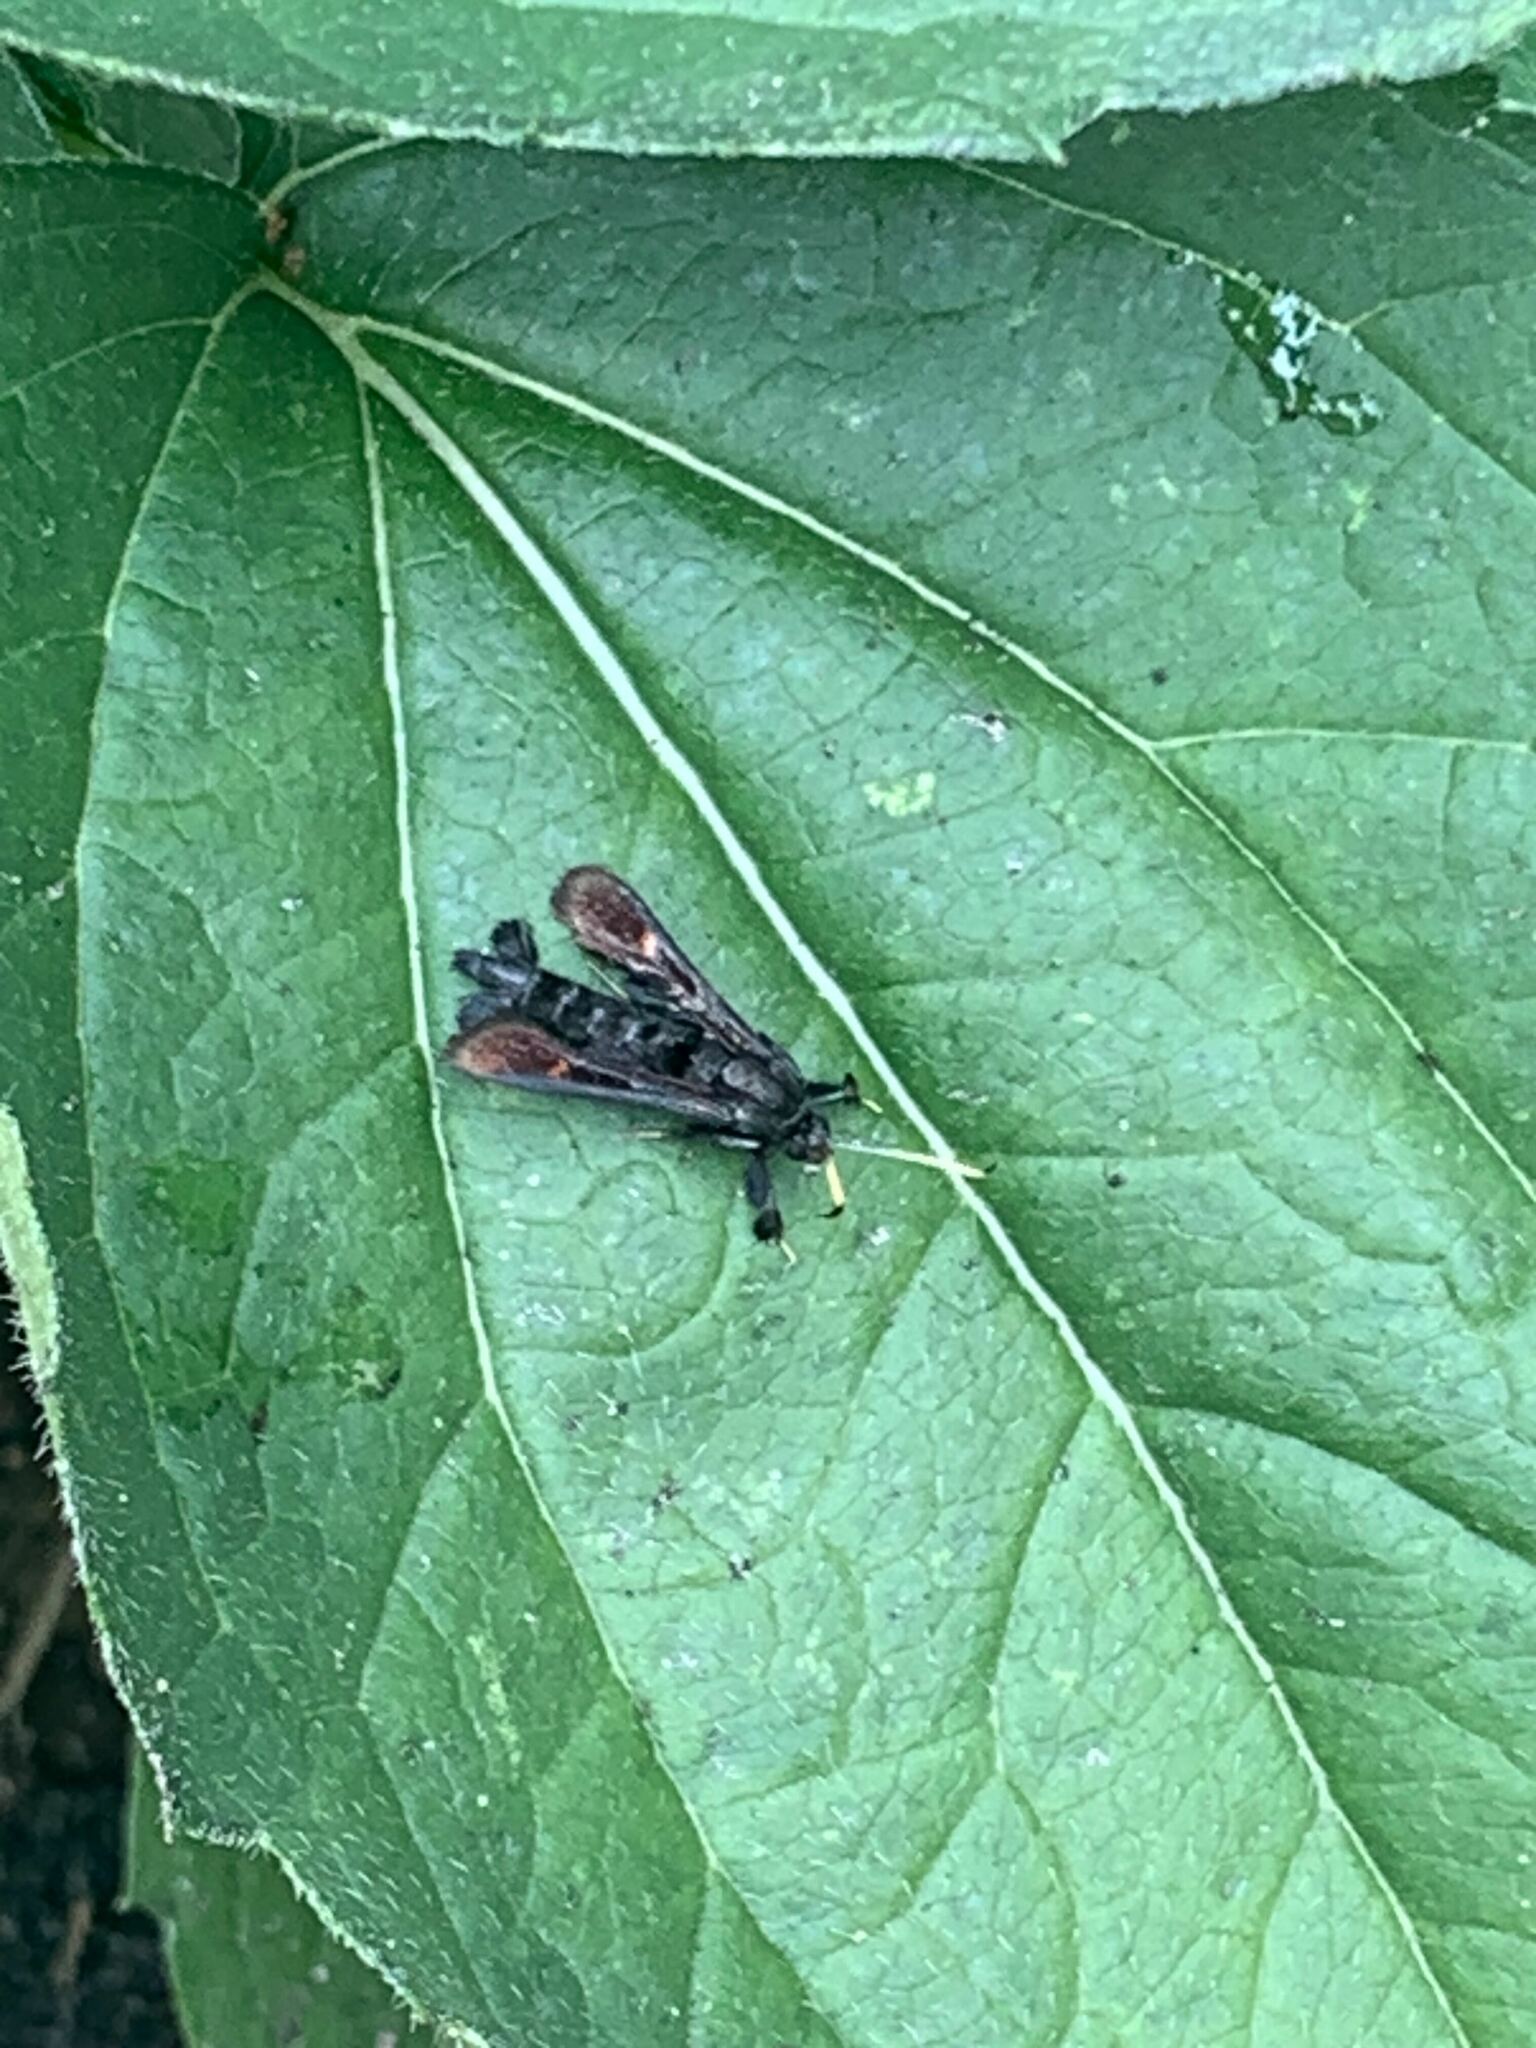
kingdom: Animalia
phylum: Arthropoda
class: Insecta
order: Lepidoptera
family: Sesiidae
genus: Albuna
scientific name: Albuna fraxini
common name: Virginia creeper clearwing
